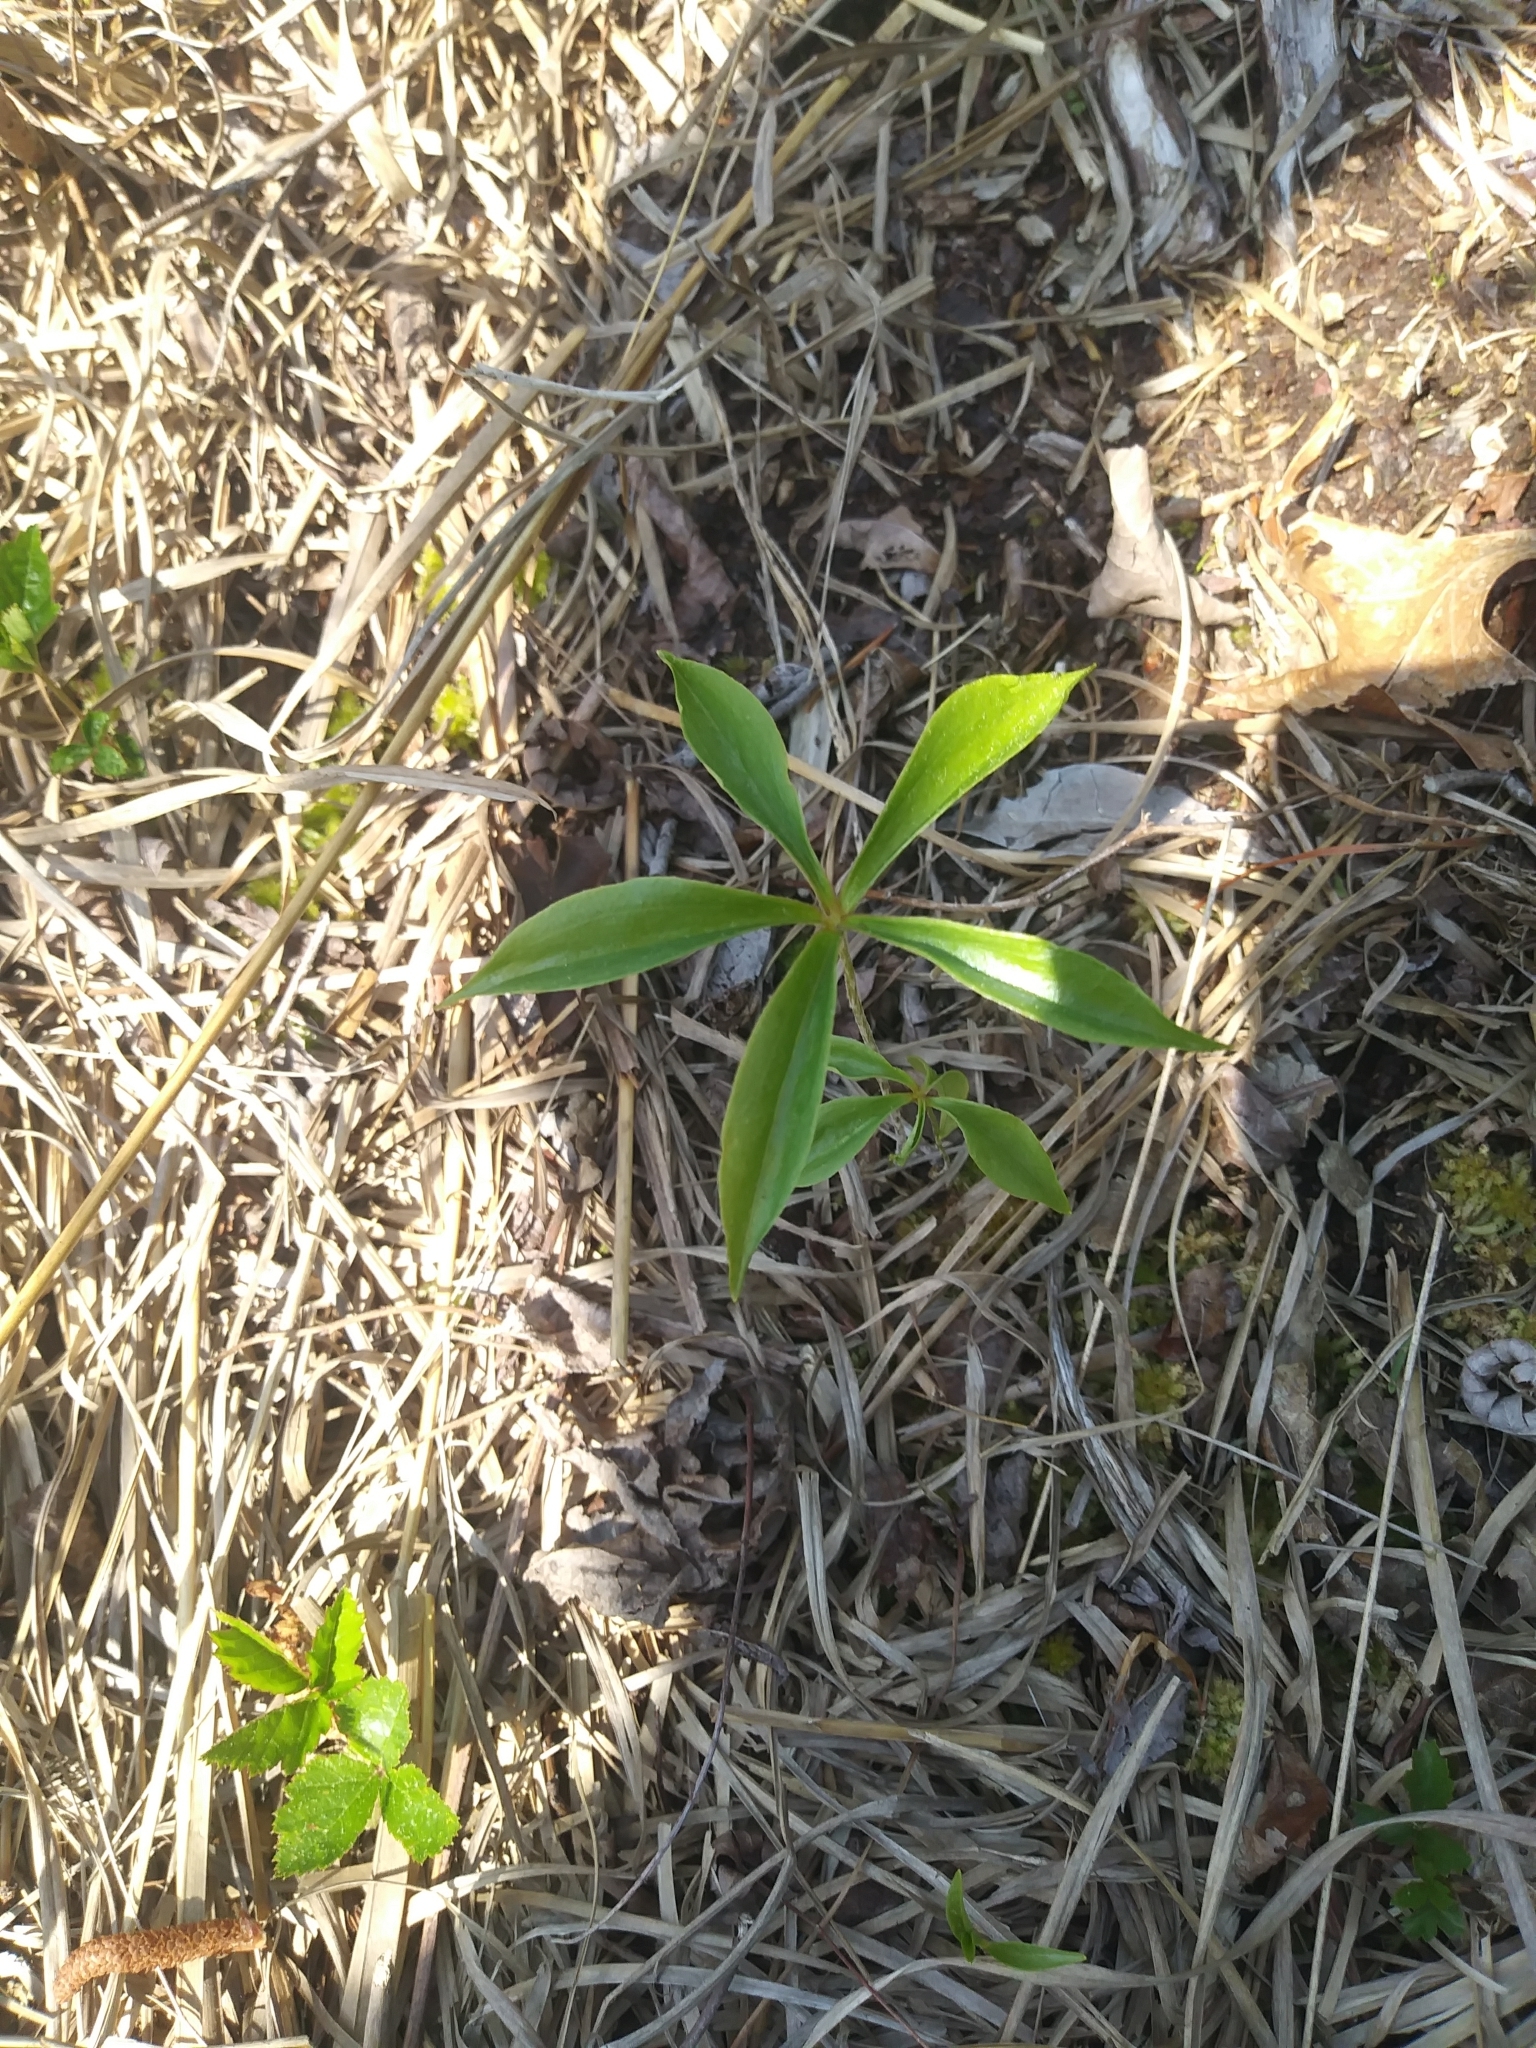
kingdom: Plantae
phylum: Tracheophyta
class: Liliopsida
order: Liliales
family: Liliaceae
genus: Medeola
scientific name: Medeola virginiana
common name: Indian cucumber-root
